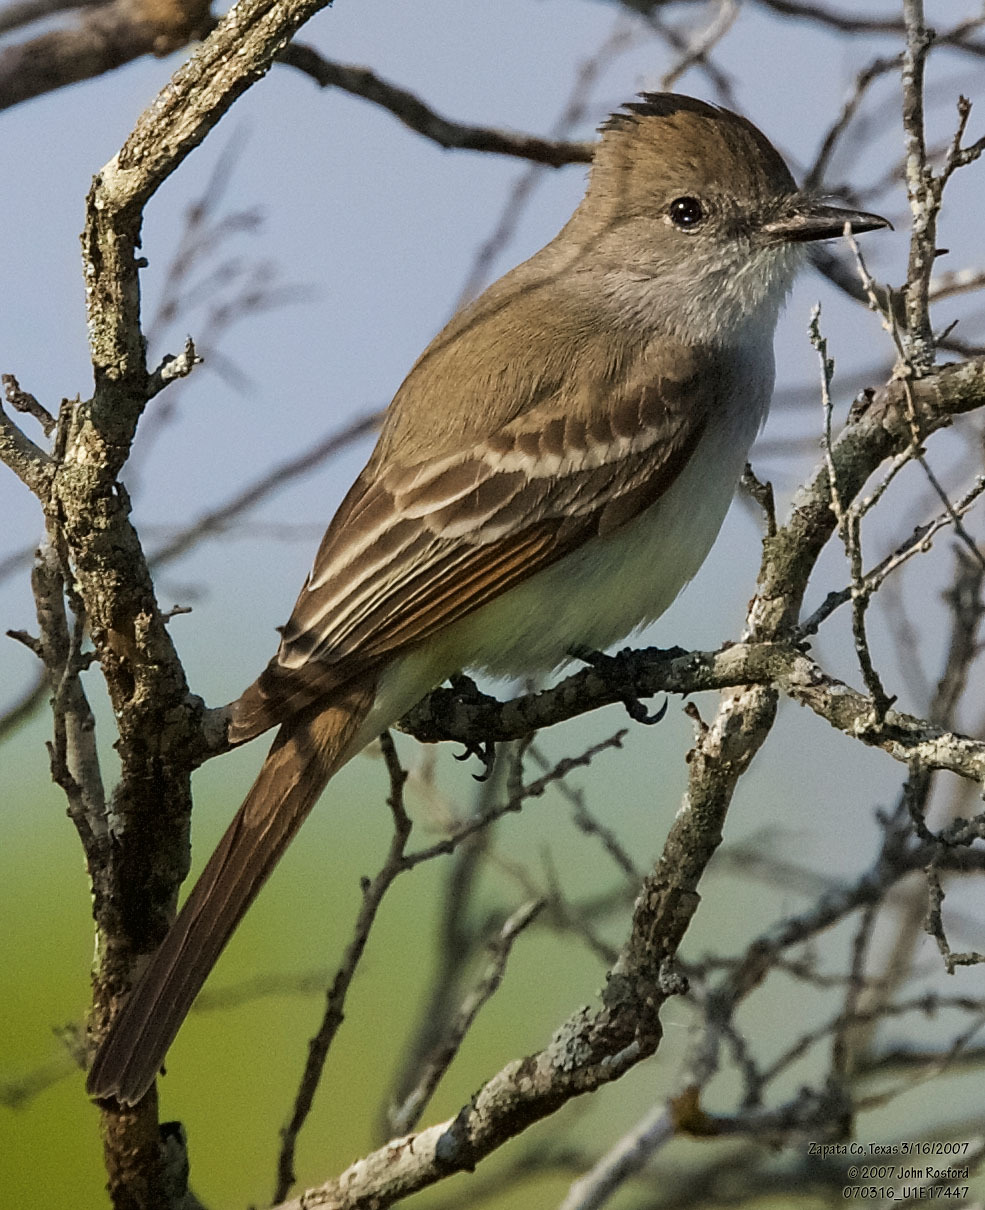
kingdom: Animalia
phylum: Chordata
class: Aves
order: Passeriformes
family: Tyrannidae
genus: Myiarchus
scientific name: Myiarchus cinerascens
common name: Ash-throated flycatcher
